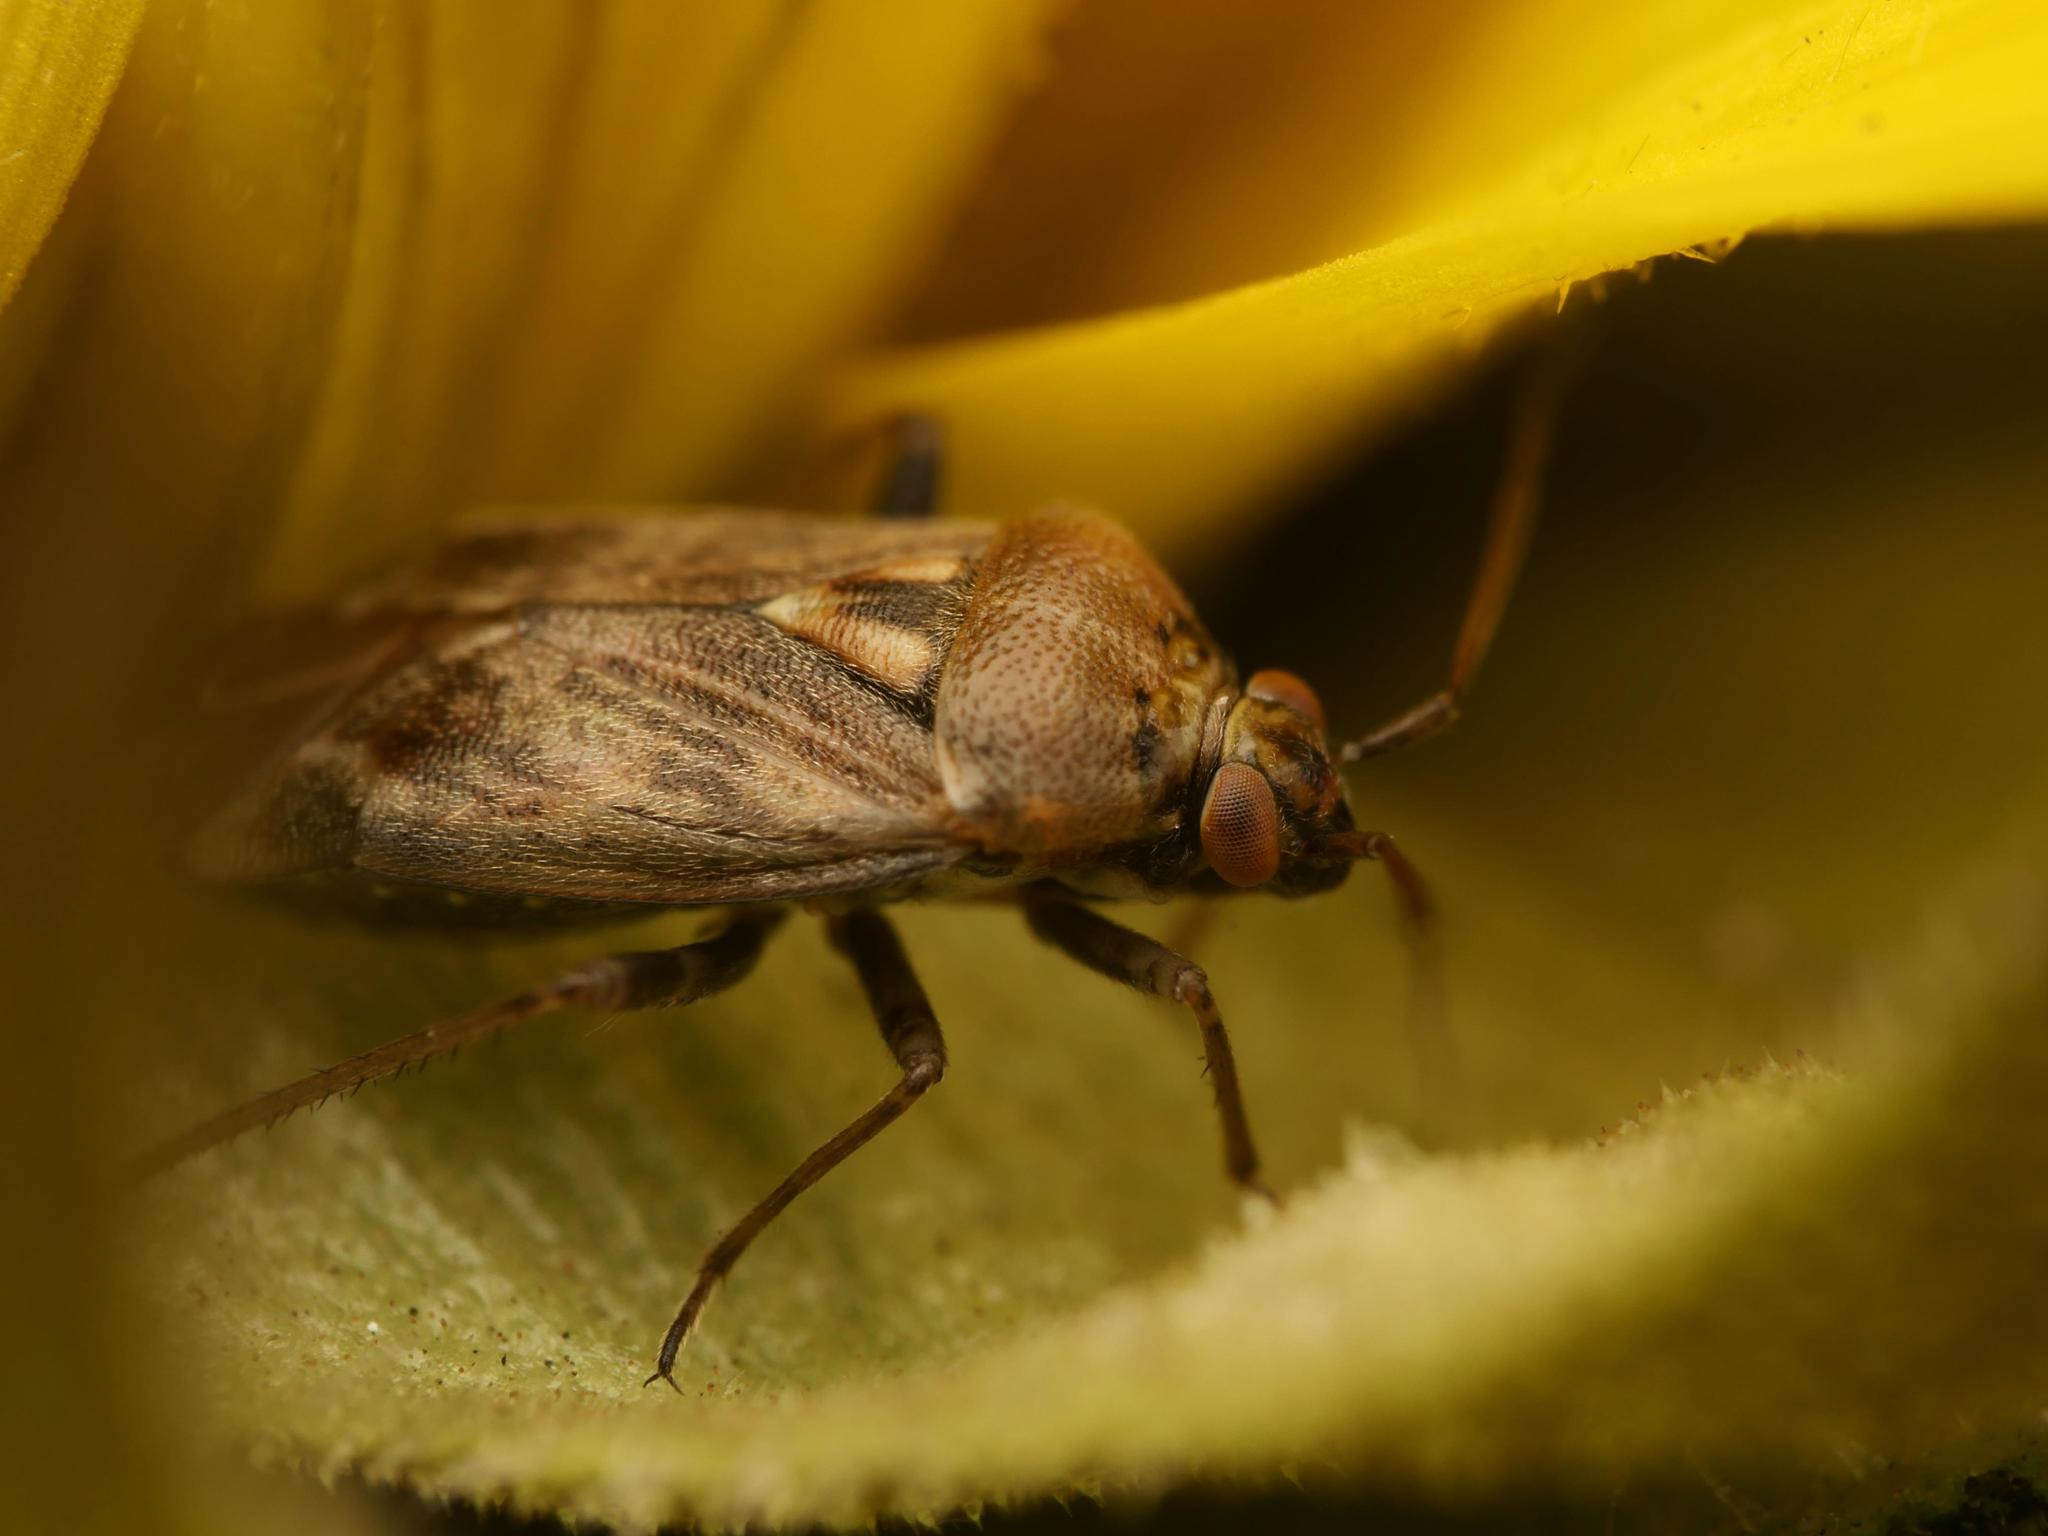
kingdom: Animalia
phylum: Arthropoda
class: Insecta
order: Hemiptera
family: Miridae
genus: Lygus
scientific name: Lygus rugulipennis
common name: European tarnished plant bug
